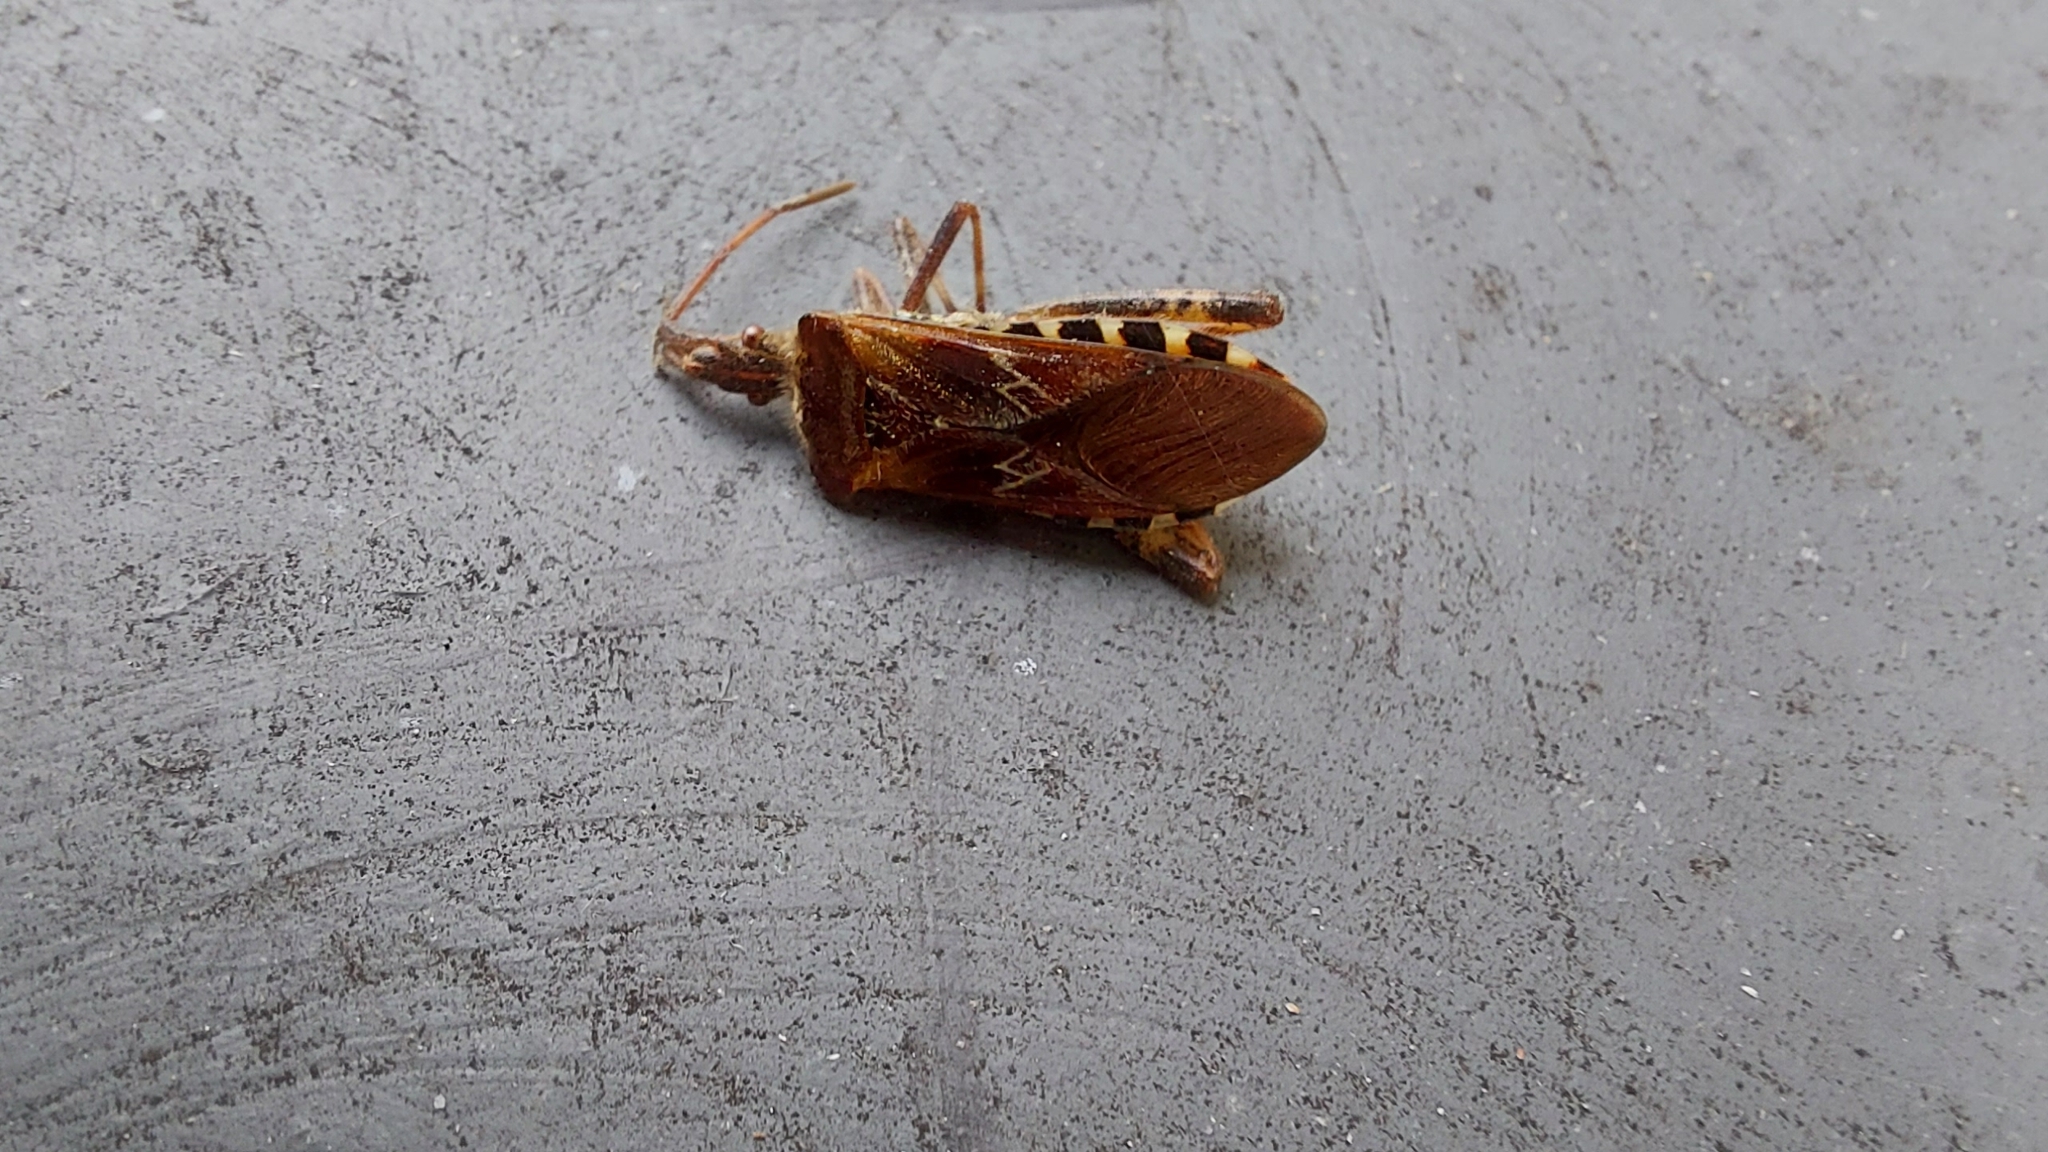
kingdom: Animalia
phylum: Arthropoda
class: Insecta
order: Hemiptera
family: Coreidae
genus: Leptoglossus
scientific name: Leptoglossus occidentalis
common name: Western conifer-seed bug
